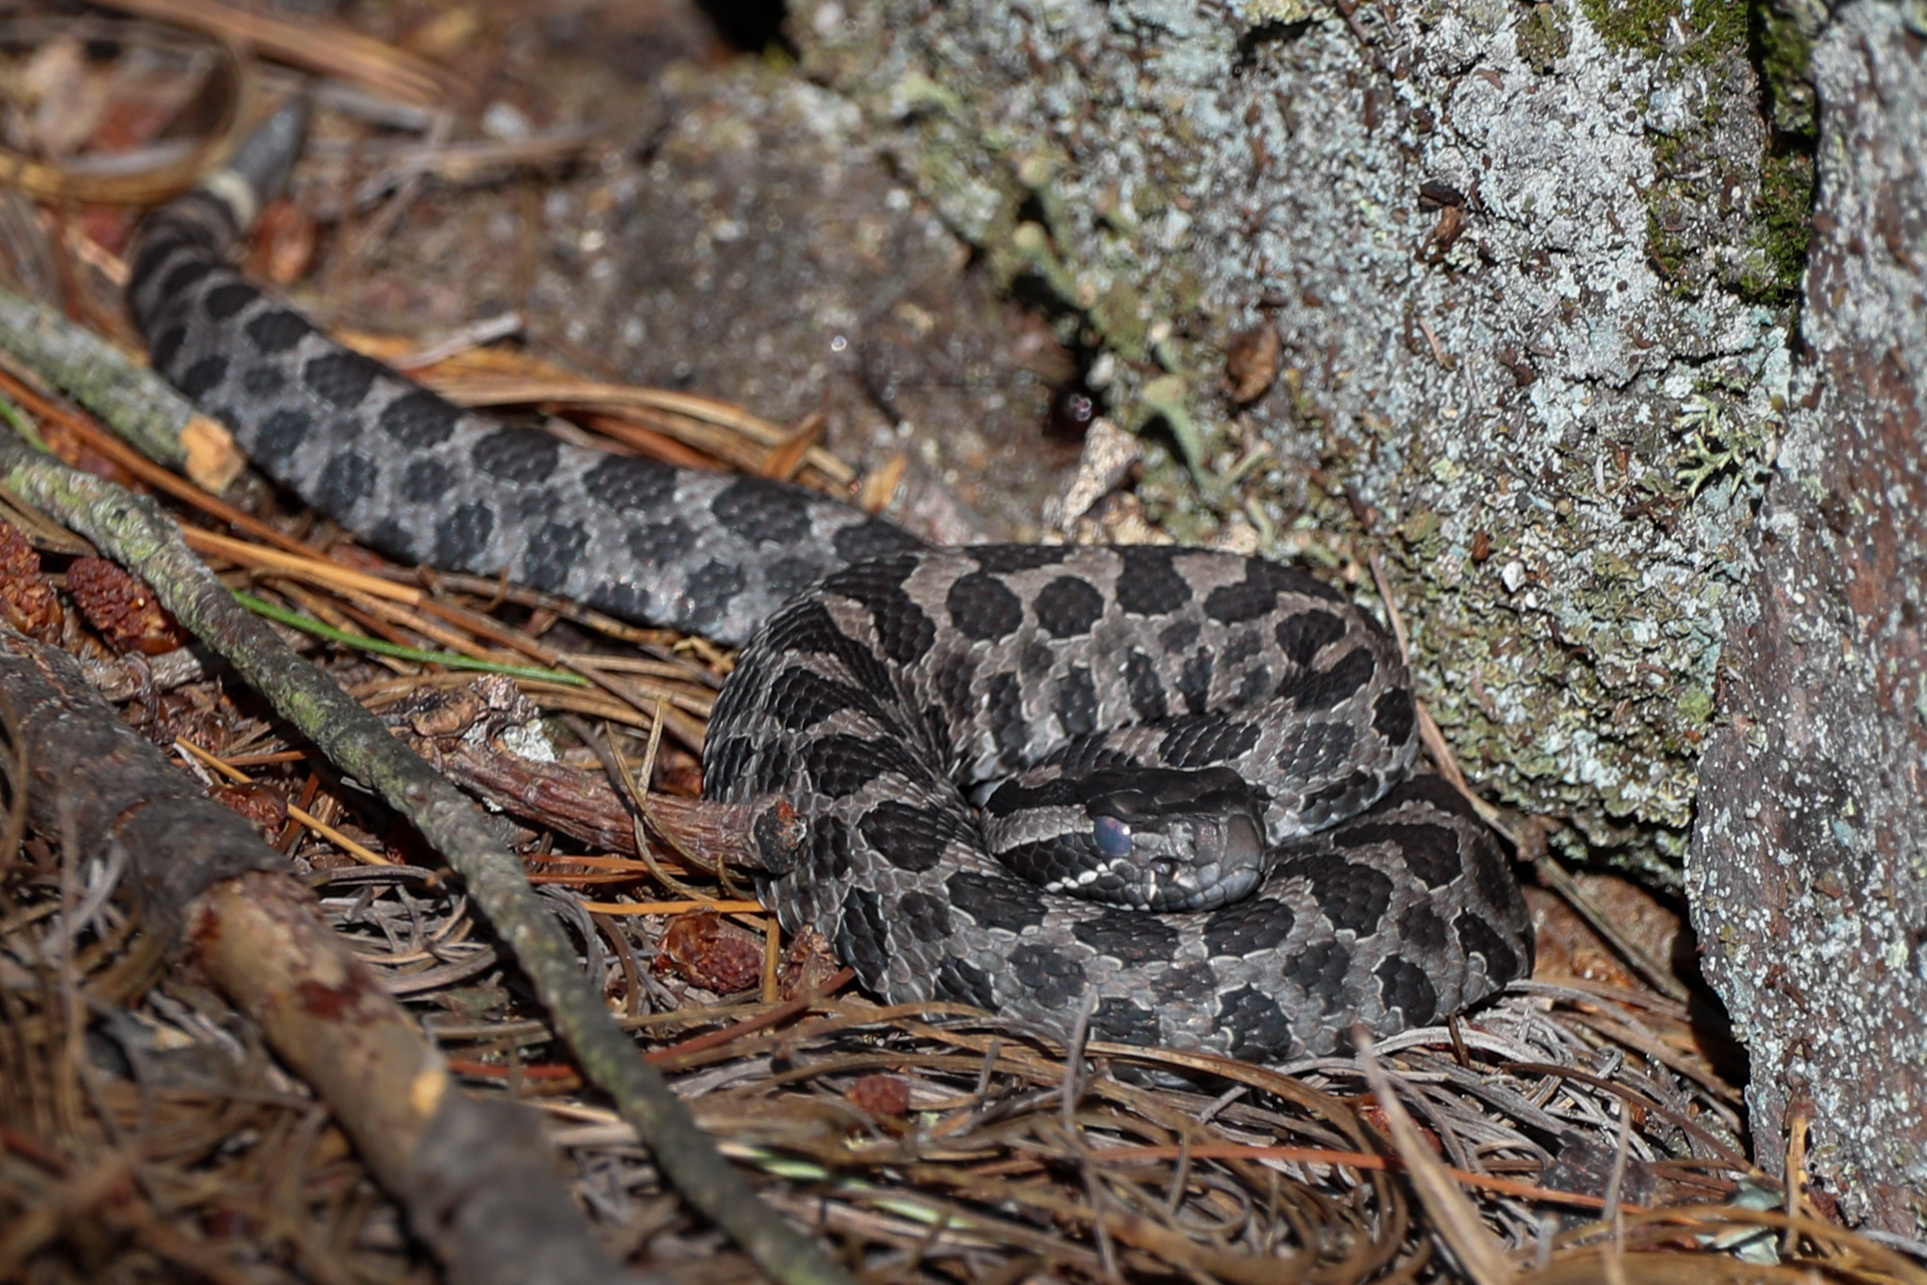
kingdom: Animalia
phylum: Chordata
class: Squamata
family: Viperidae
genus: Sistrurus
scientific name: Sistrurus catenatus
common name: Massasauga
